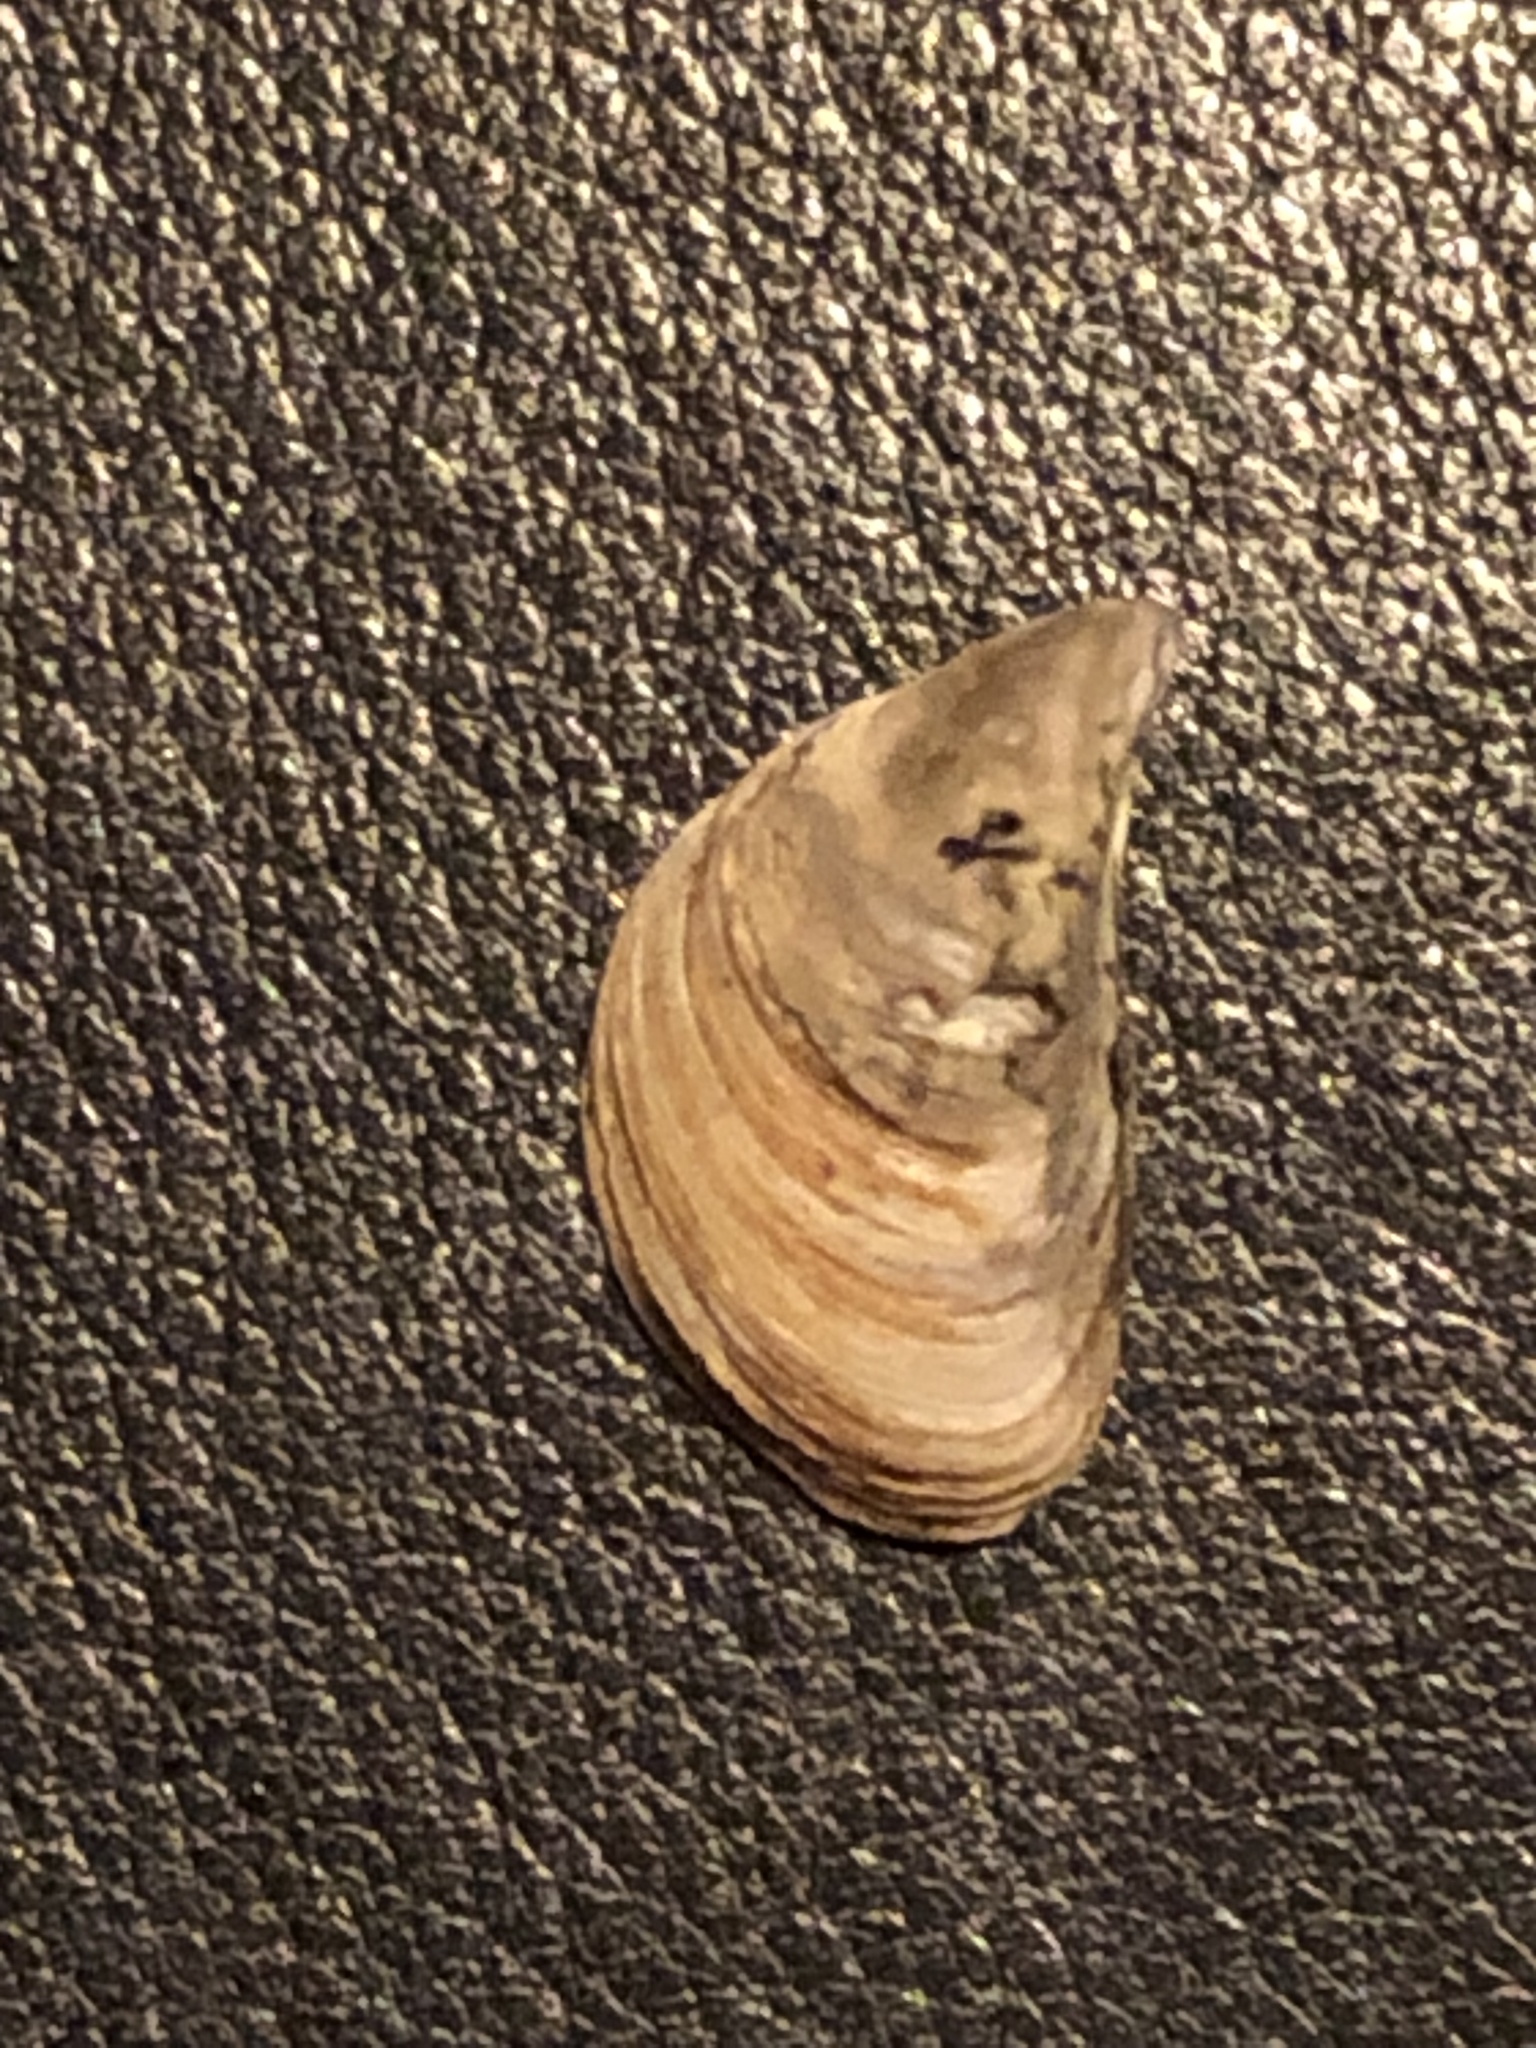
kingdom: Animalia
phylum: Mollusca
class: Bivalvia
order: Myida
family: Dreissenidae
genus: Dreissena
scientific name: Dreissena polymorpha
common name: Zebra mussel
